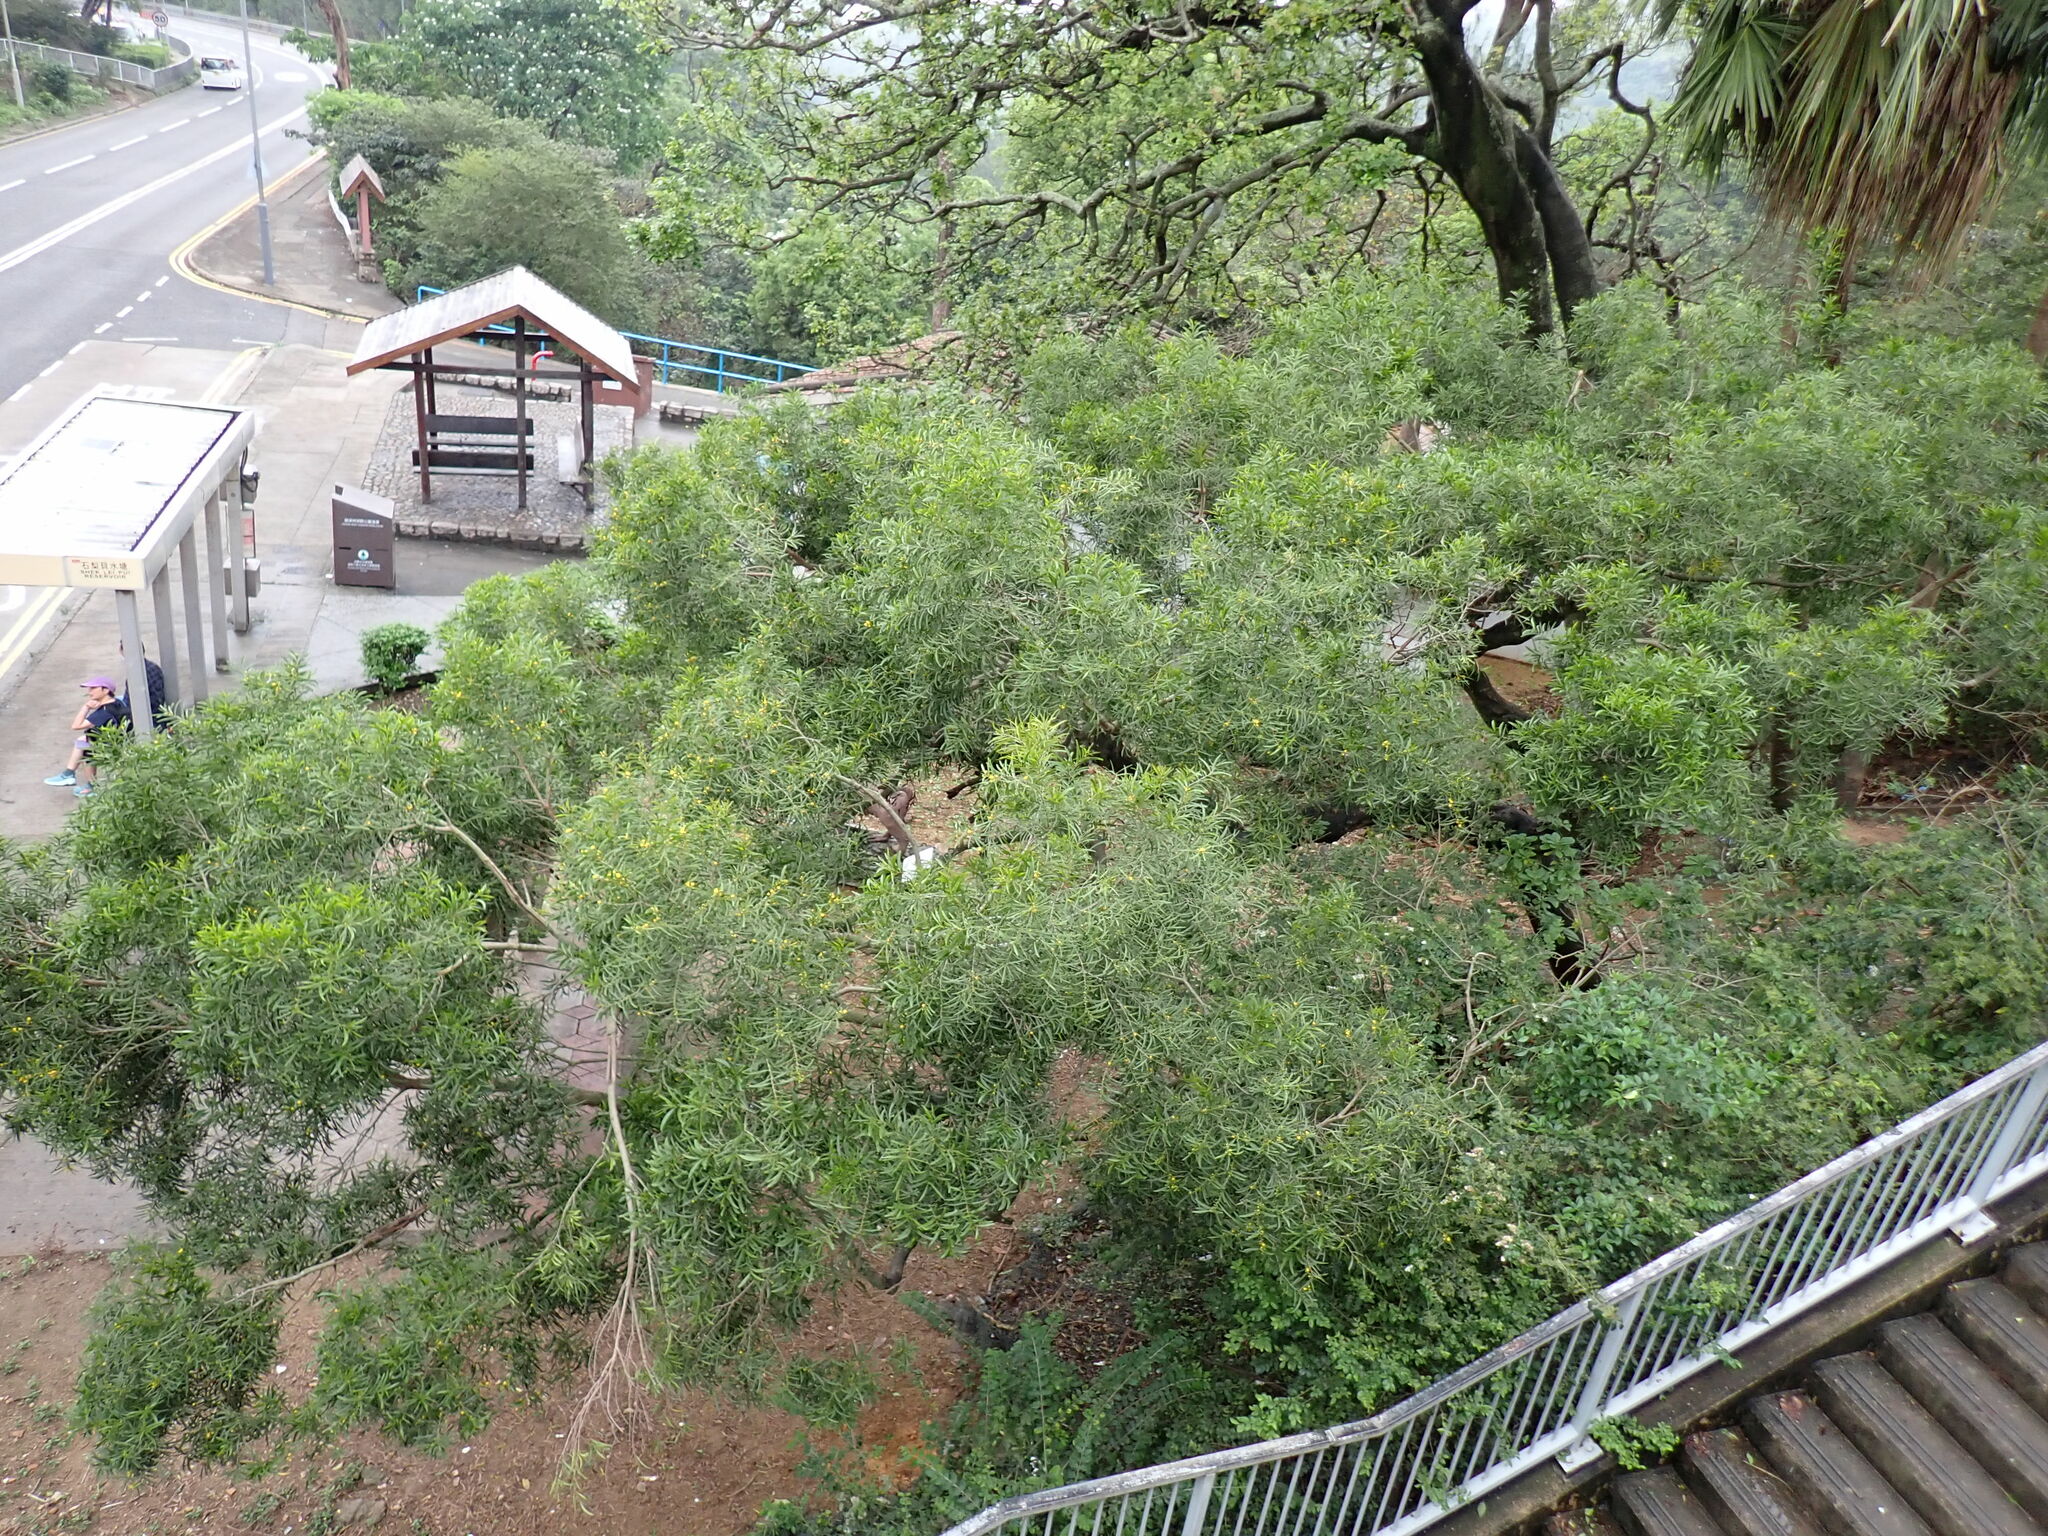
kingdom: Plantae
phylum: Tracheophyta
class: Magnoliopsida
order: Fabales
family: Fabaceae
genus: Acacia
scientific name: Acacia confusa
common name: Formosan koa
